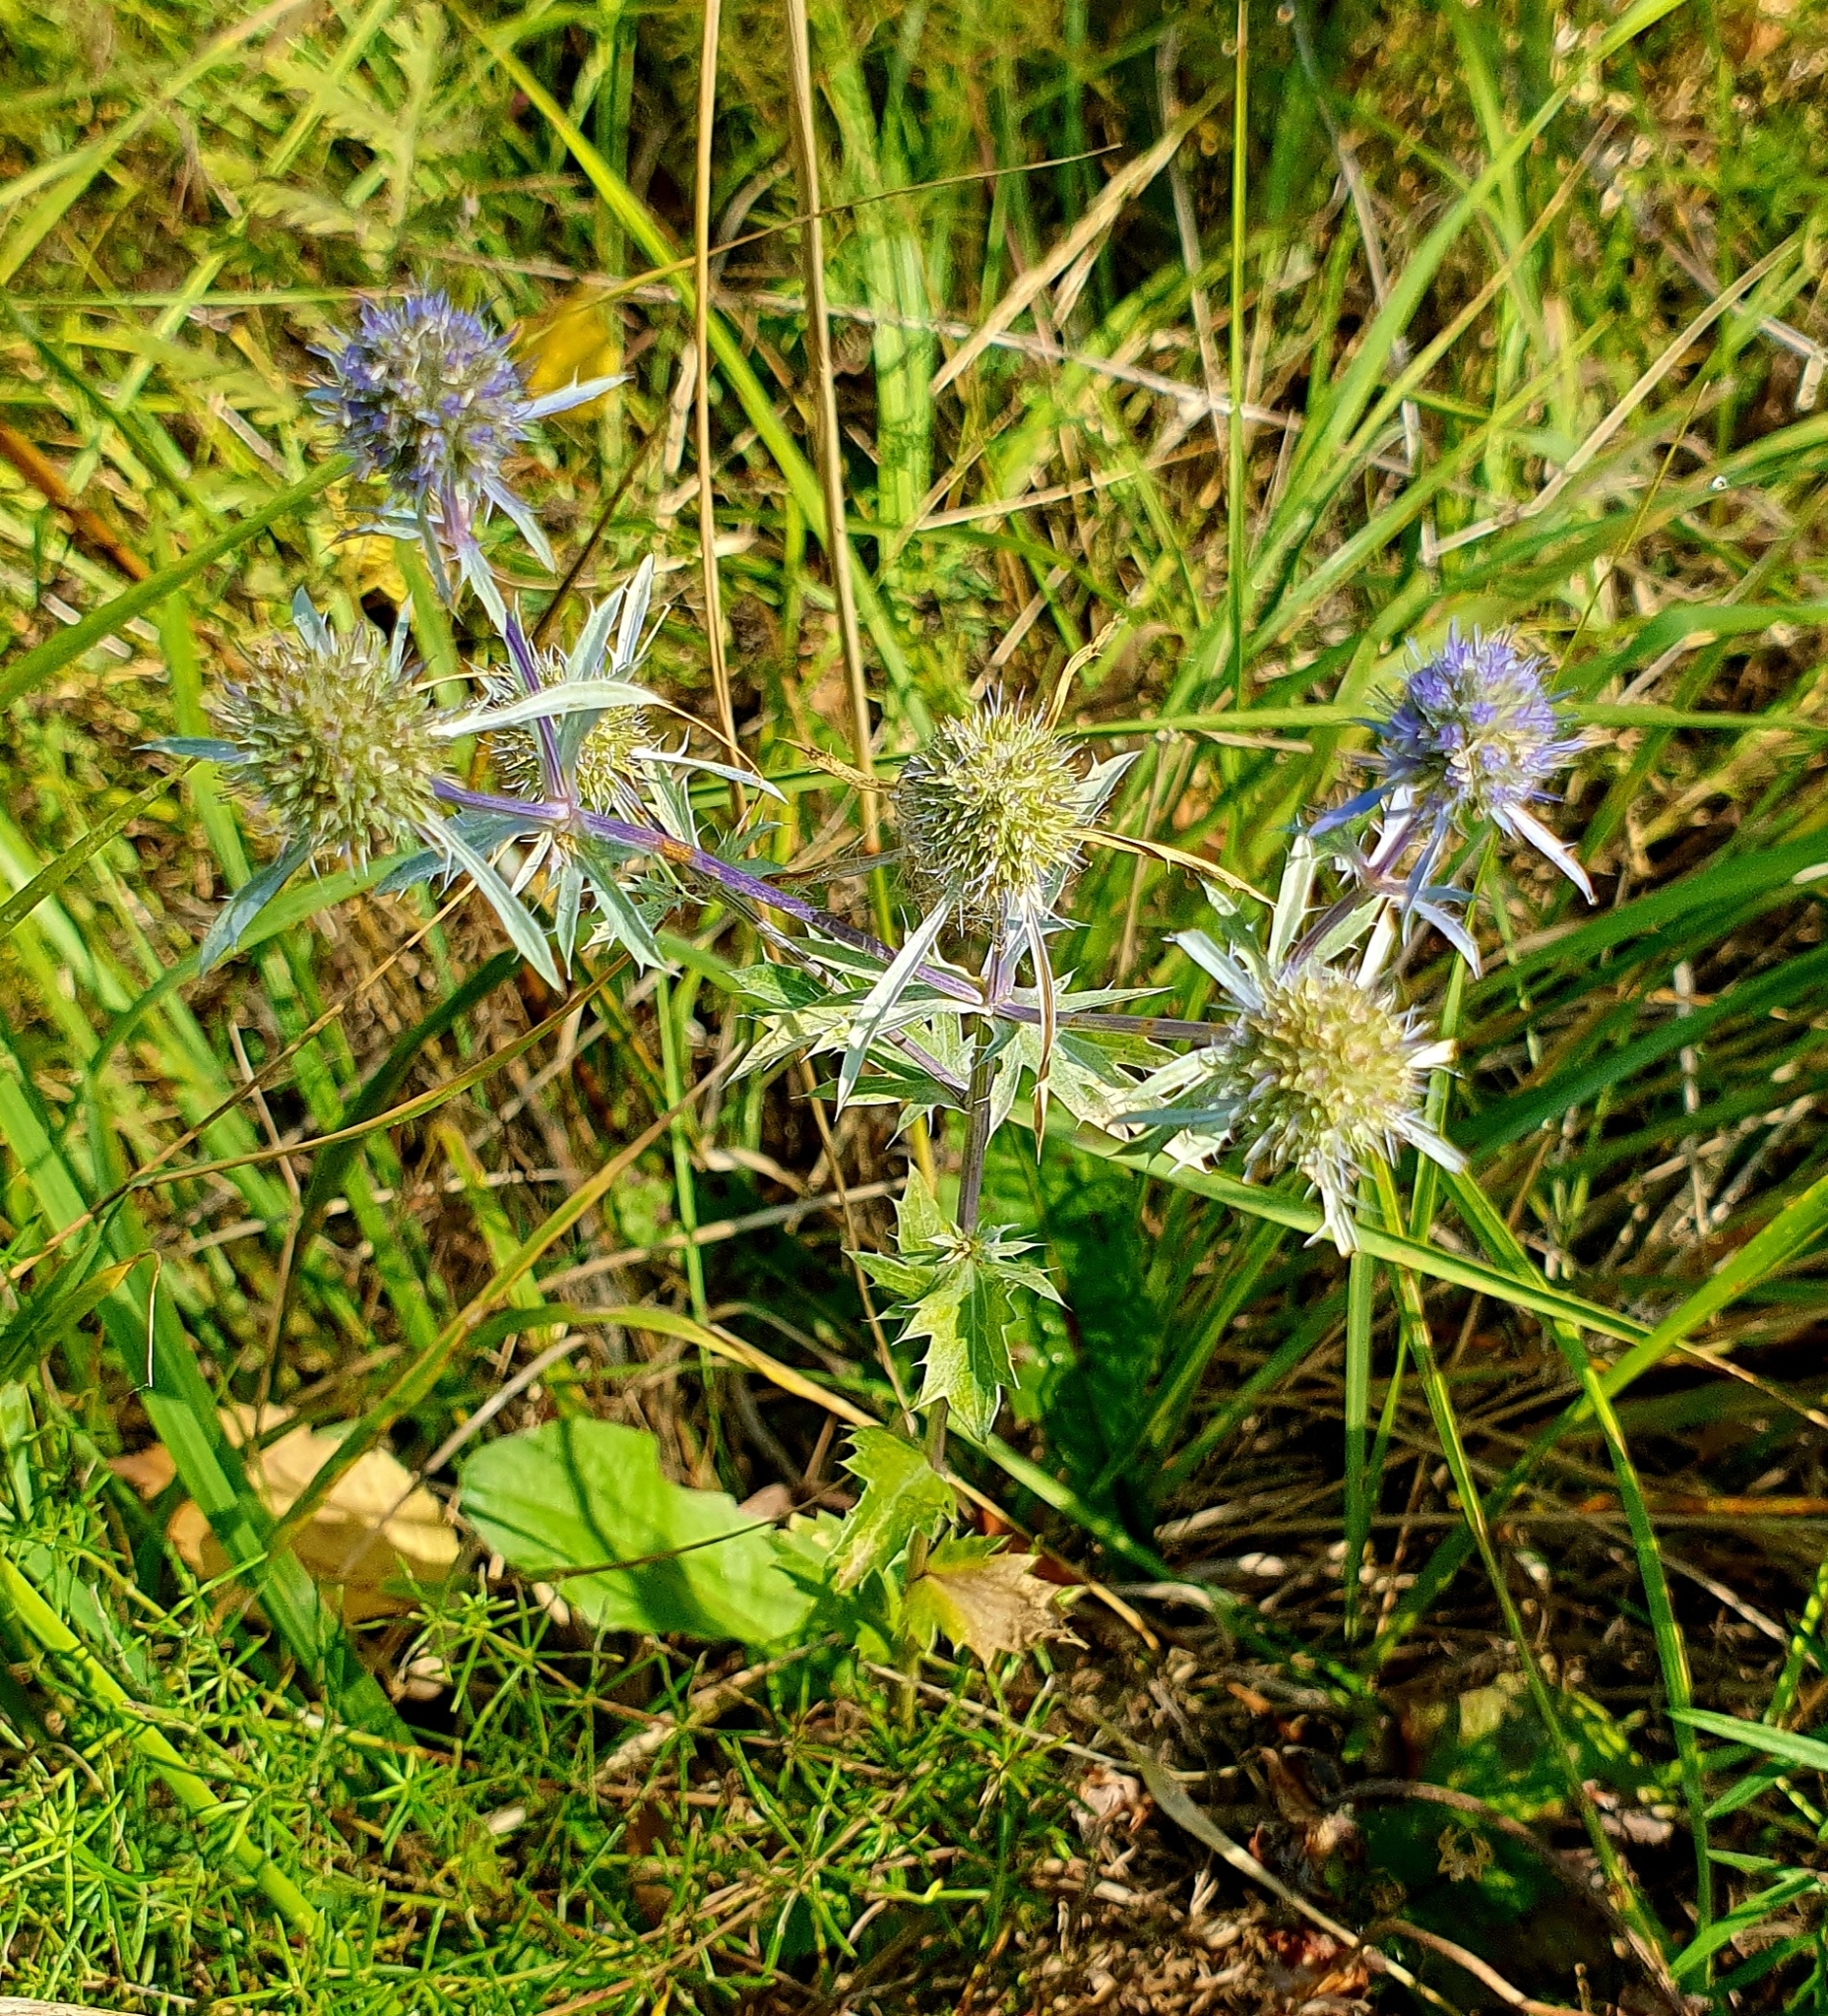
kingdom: Plantae
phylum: Tracheophyta
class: Magnoliopsida
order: Apiales
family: Apiaceae
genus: Eryngium
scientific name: Eryngium planum
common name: Blue eryngo
